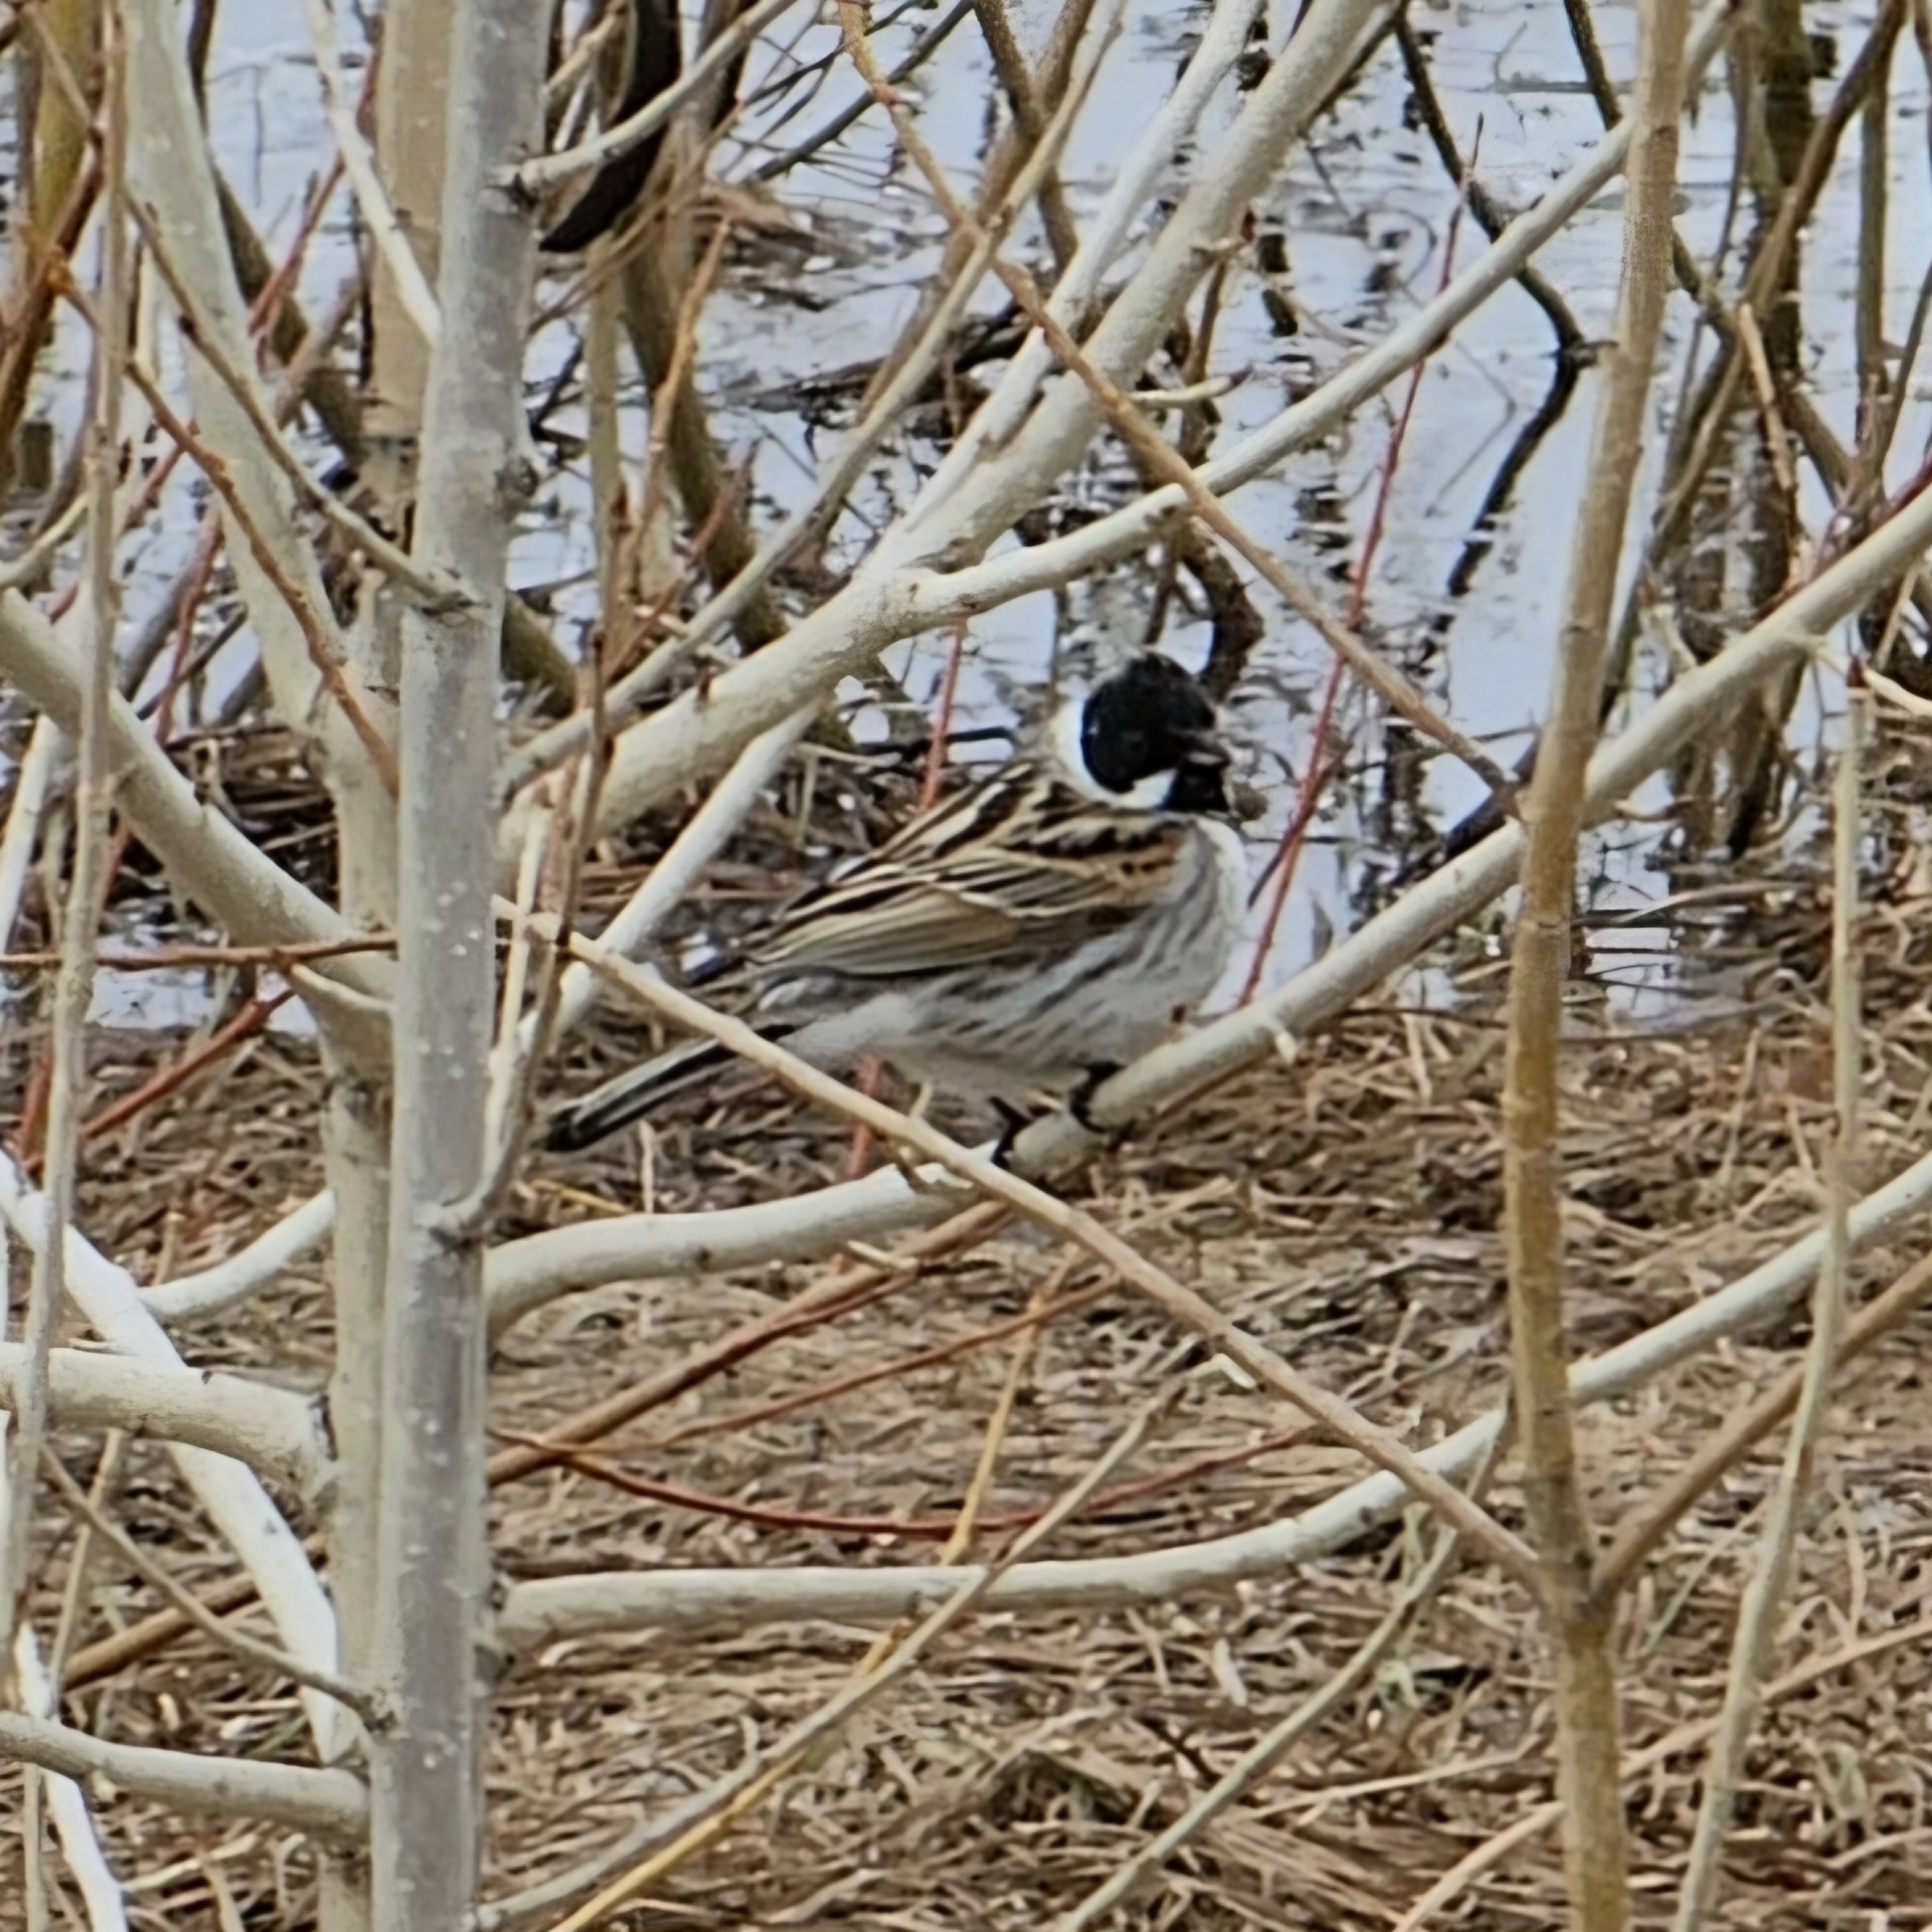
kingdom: Animalia
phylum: Chordata
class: Aves
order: Passeriformes
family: Emberizidae
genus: Emberiza
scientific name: Emberiza schoeniclus
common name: Reed bunting
